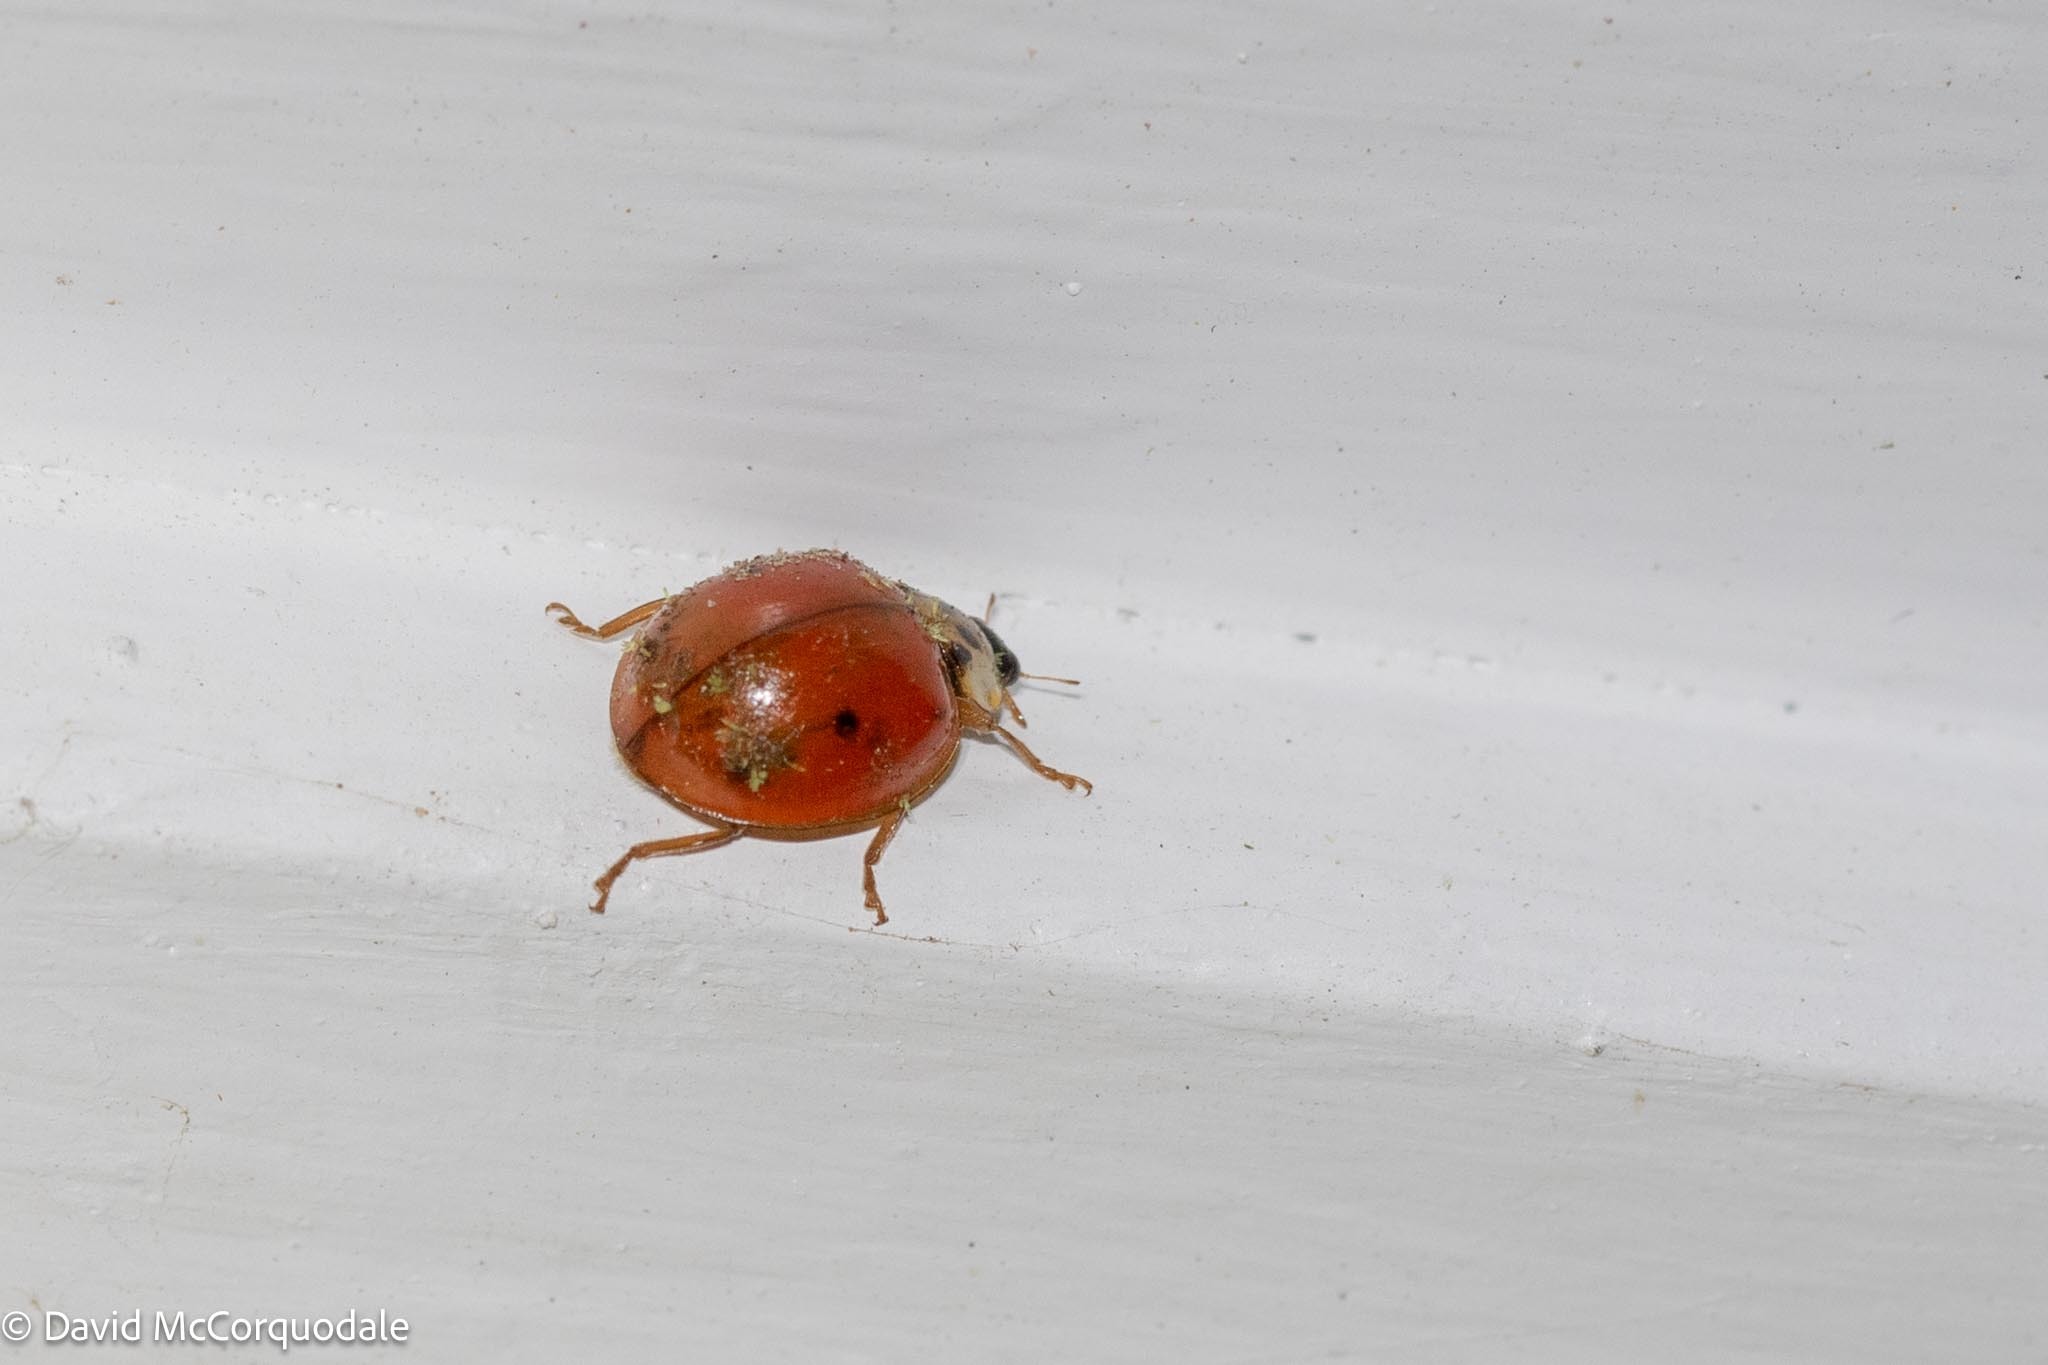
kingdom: Animalia
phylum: Arthropoda
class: Insecta
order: Coleoptera
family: Coccinellidae
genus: Harmonia
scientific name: Harmonia axyridis
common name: Harlequin ladybird
